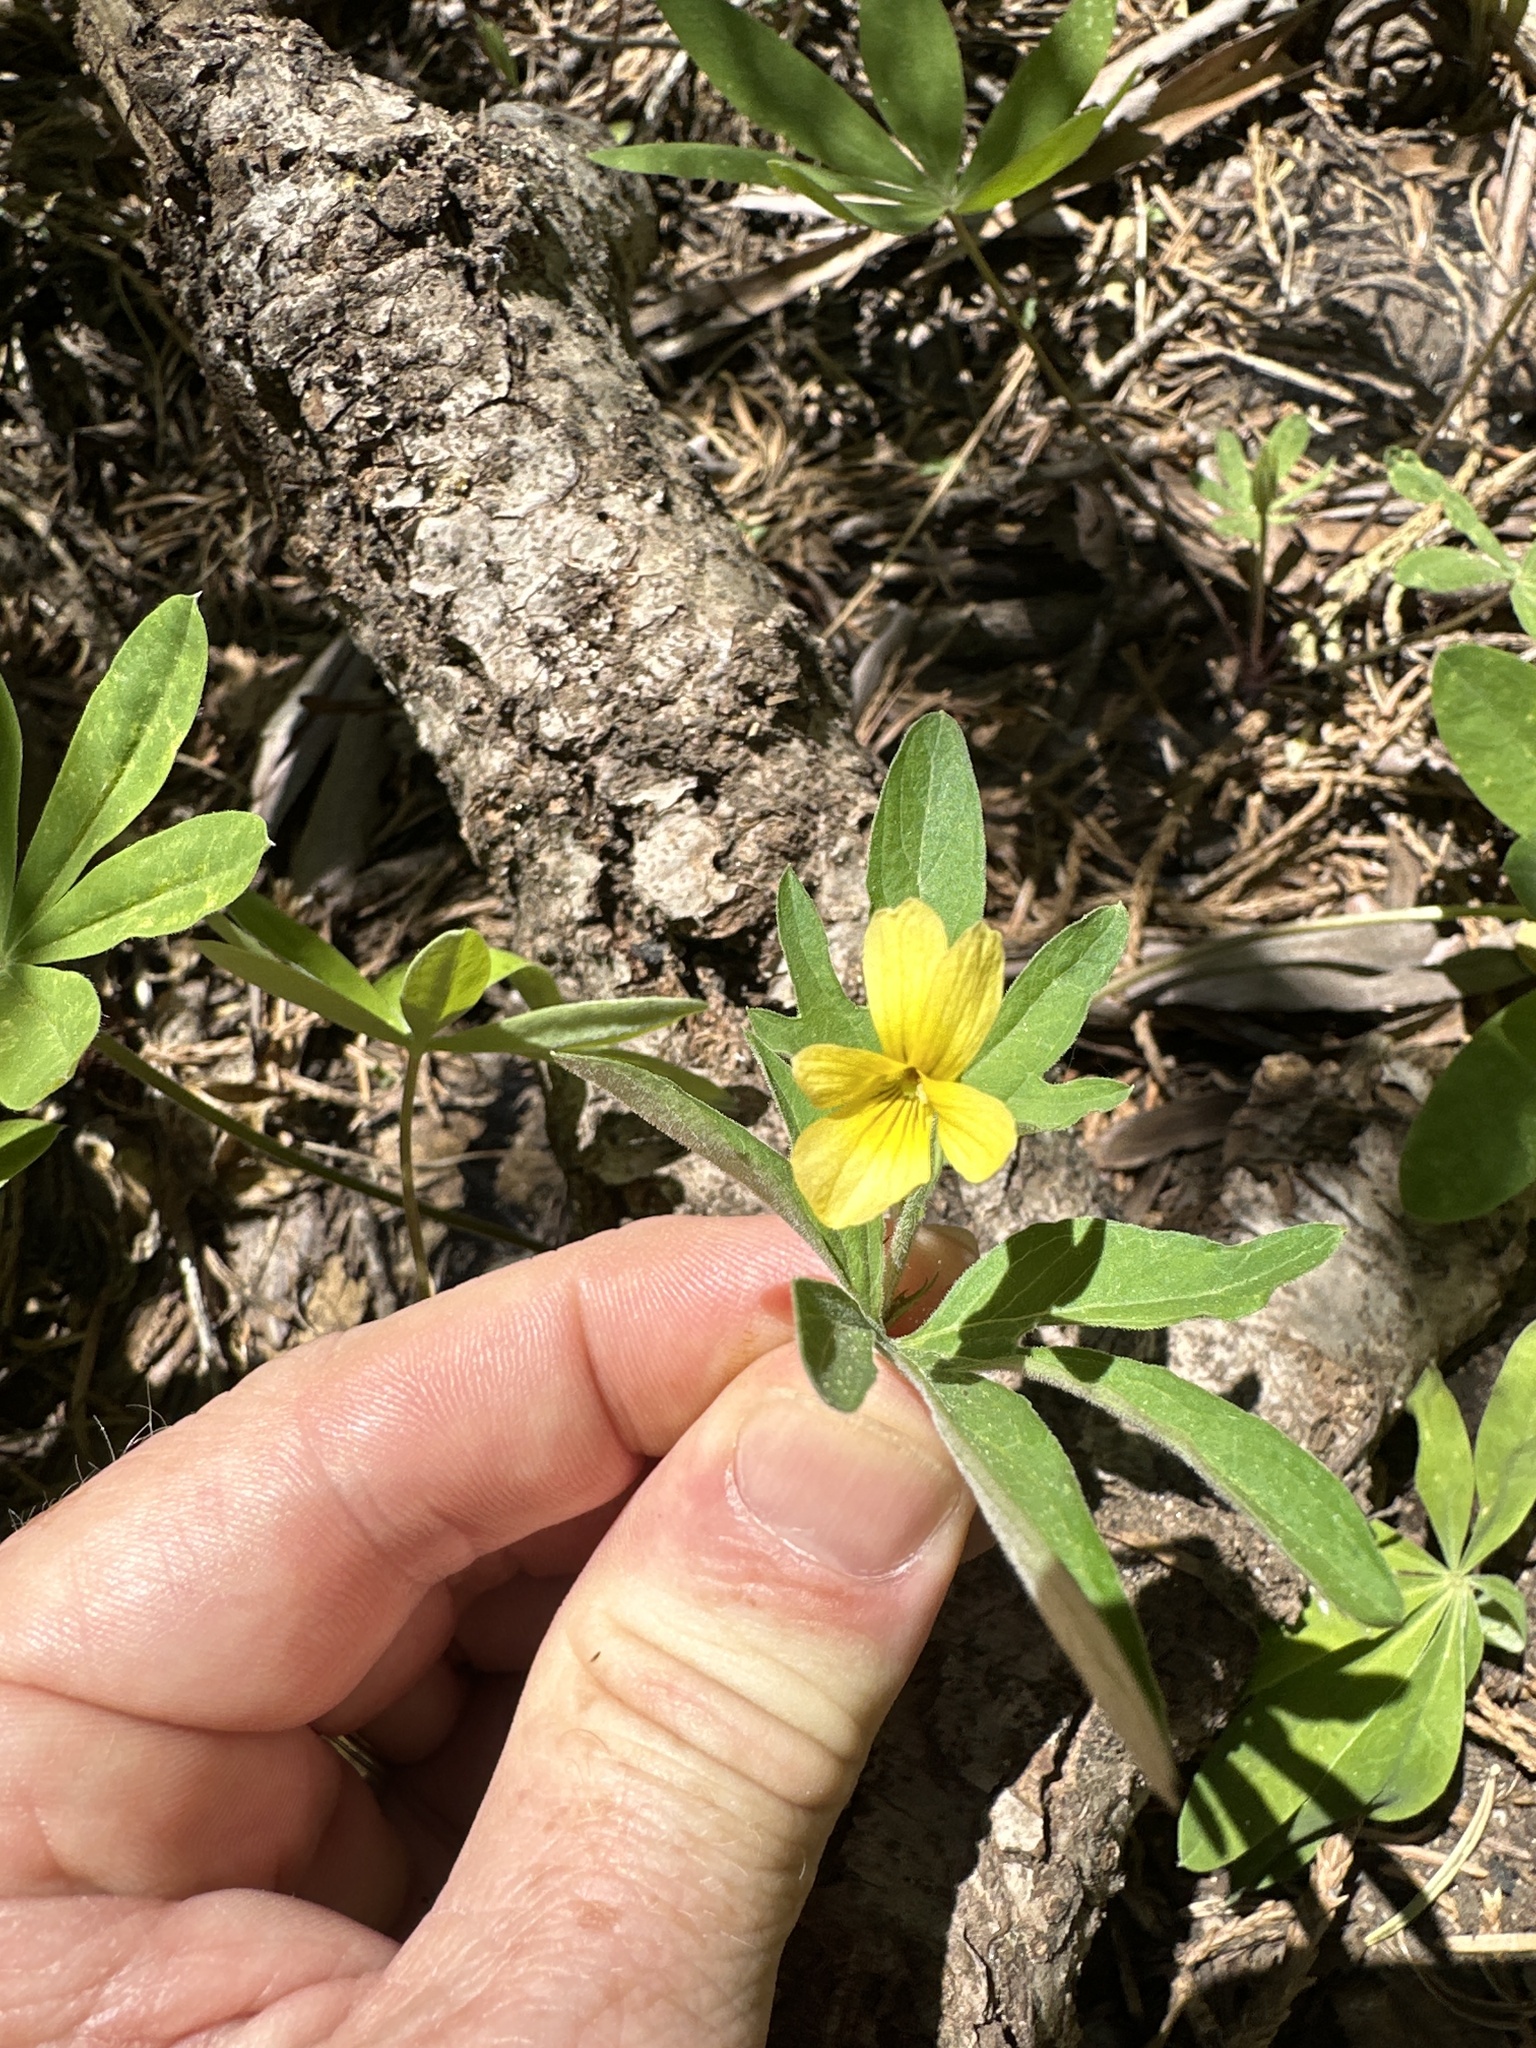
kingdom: Plantae
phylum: Tracheophyta
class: Magnoliopsida
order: Malpighiales
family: Violaceae
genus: Viola
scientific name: Viola lobata
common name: Pine violet
